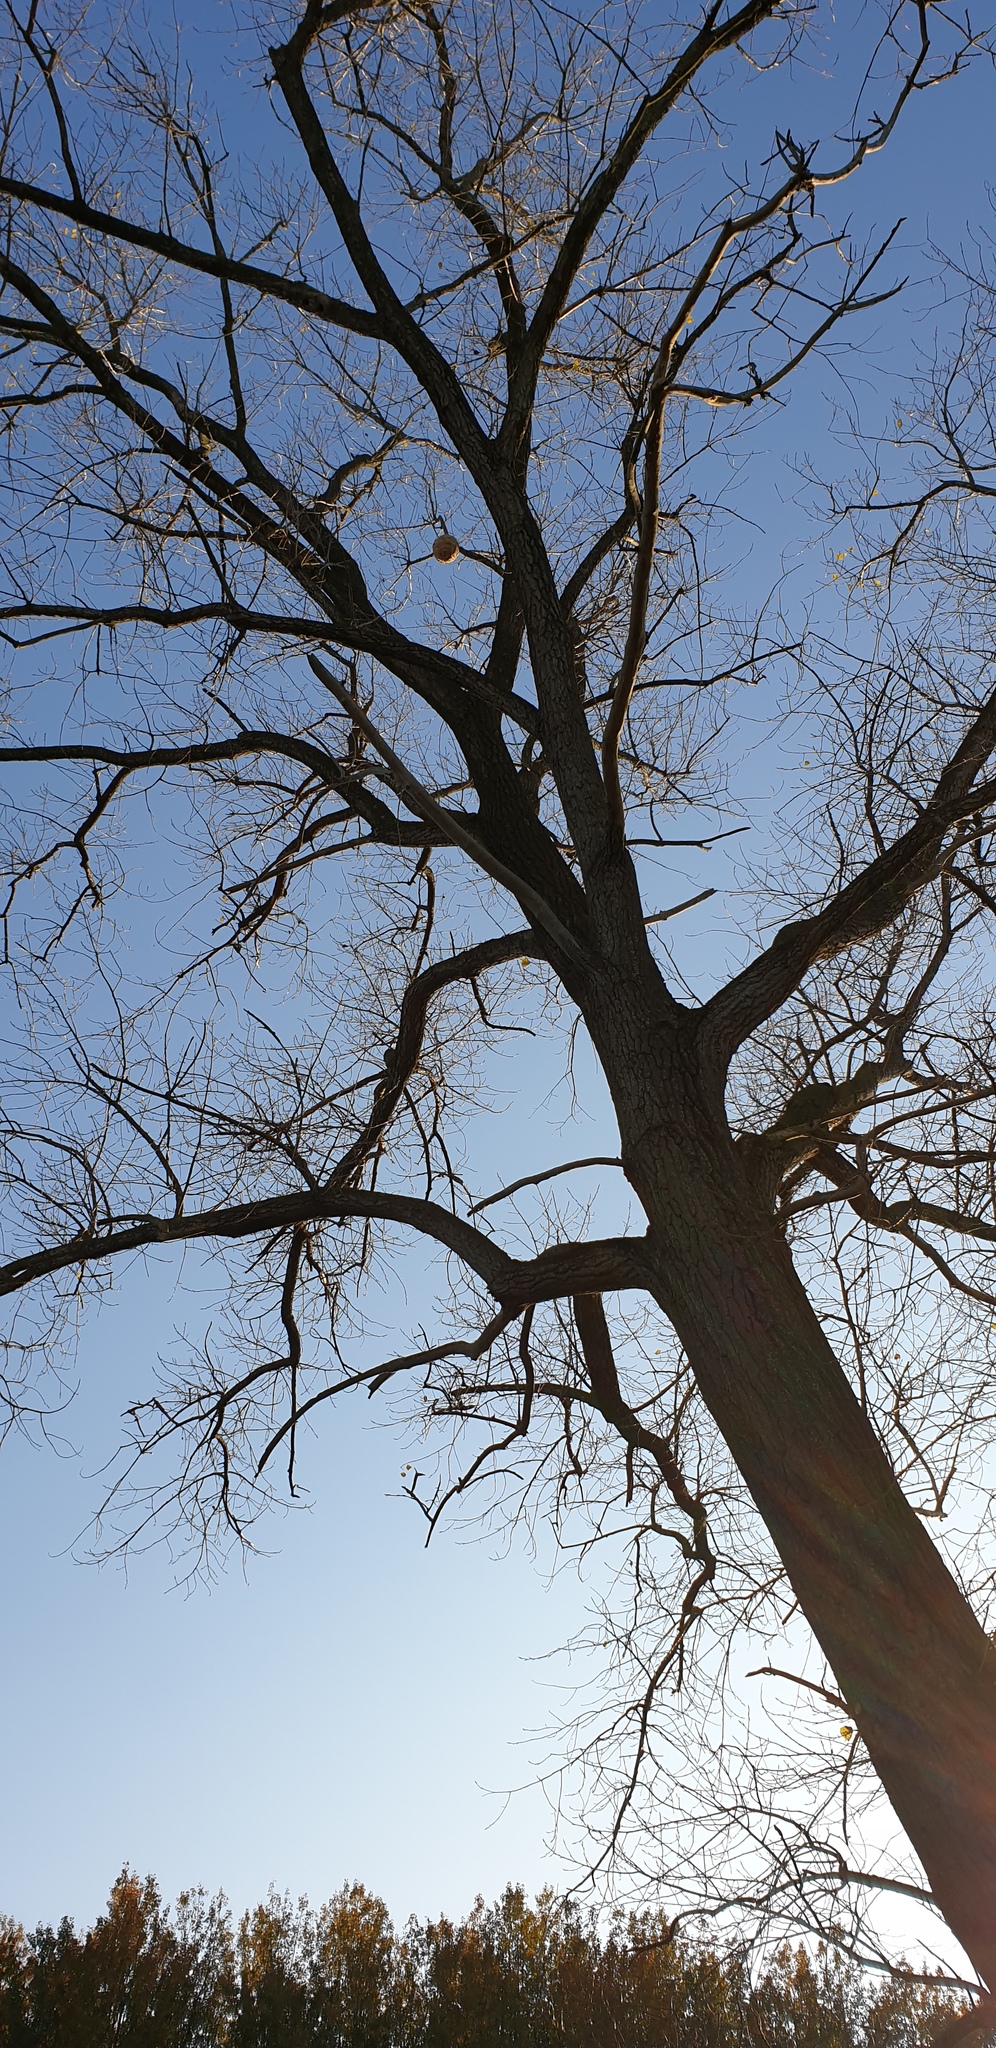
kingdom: Animalia
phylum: Arthropoda
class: Insecta
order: Hymenoptera
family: Vespidae
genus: Vespa
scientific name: Vespa velutina
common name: Asian hornet
